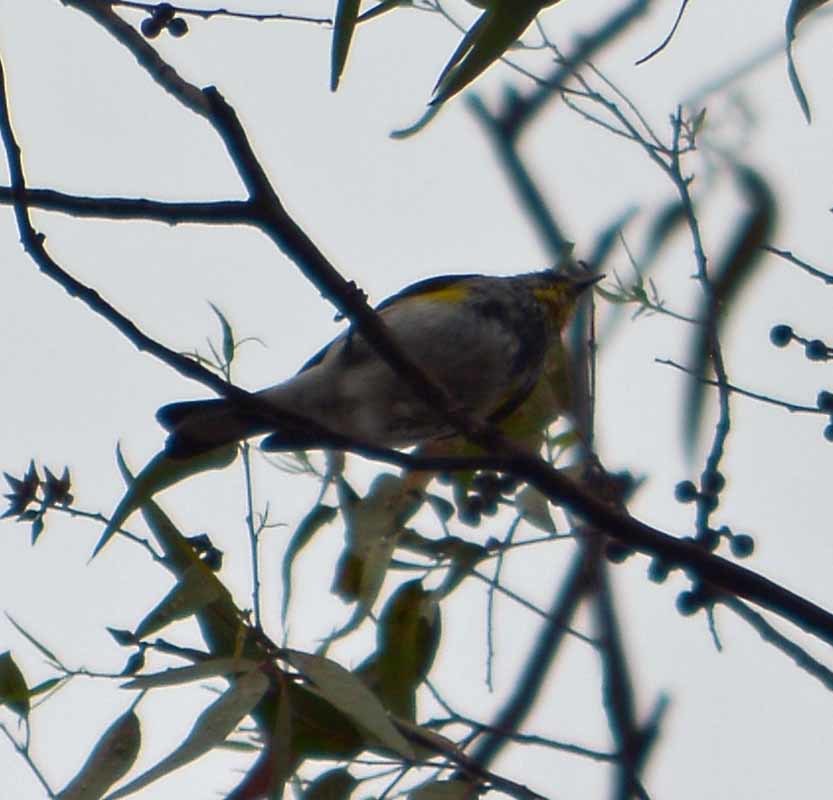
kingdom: Animalia
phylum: Chordata
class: Aves
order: Passeriformes
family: Parulidae
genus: Setophaga
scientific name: Setophaga coronata
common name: Myrtle warbler
